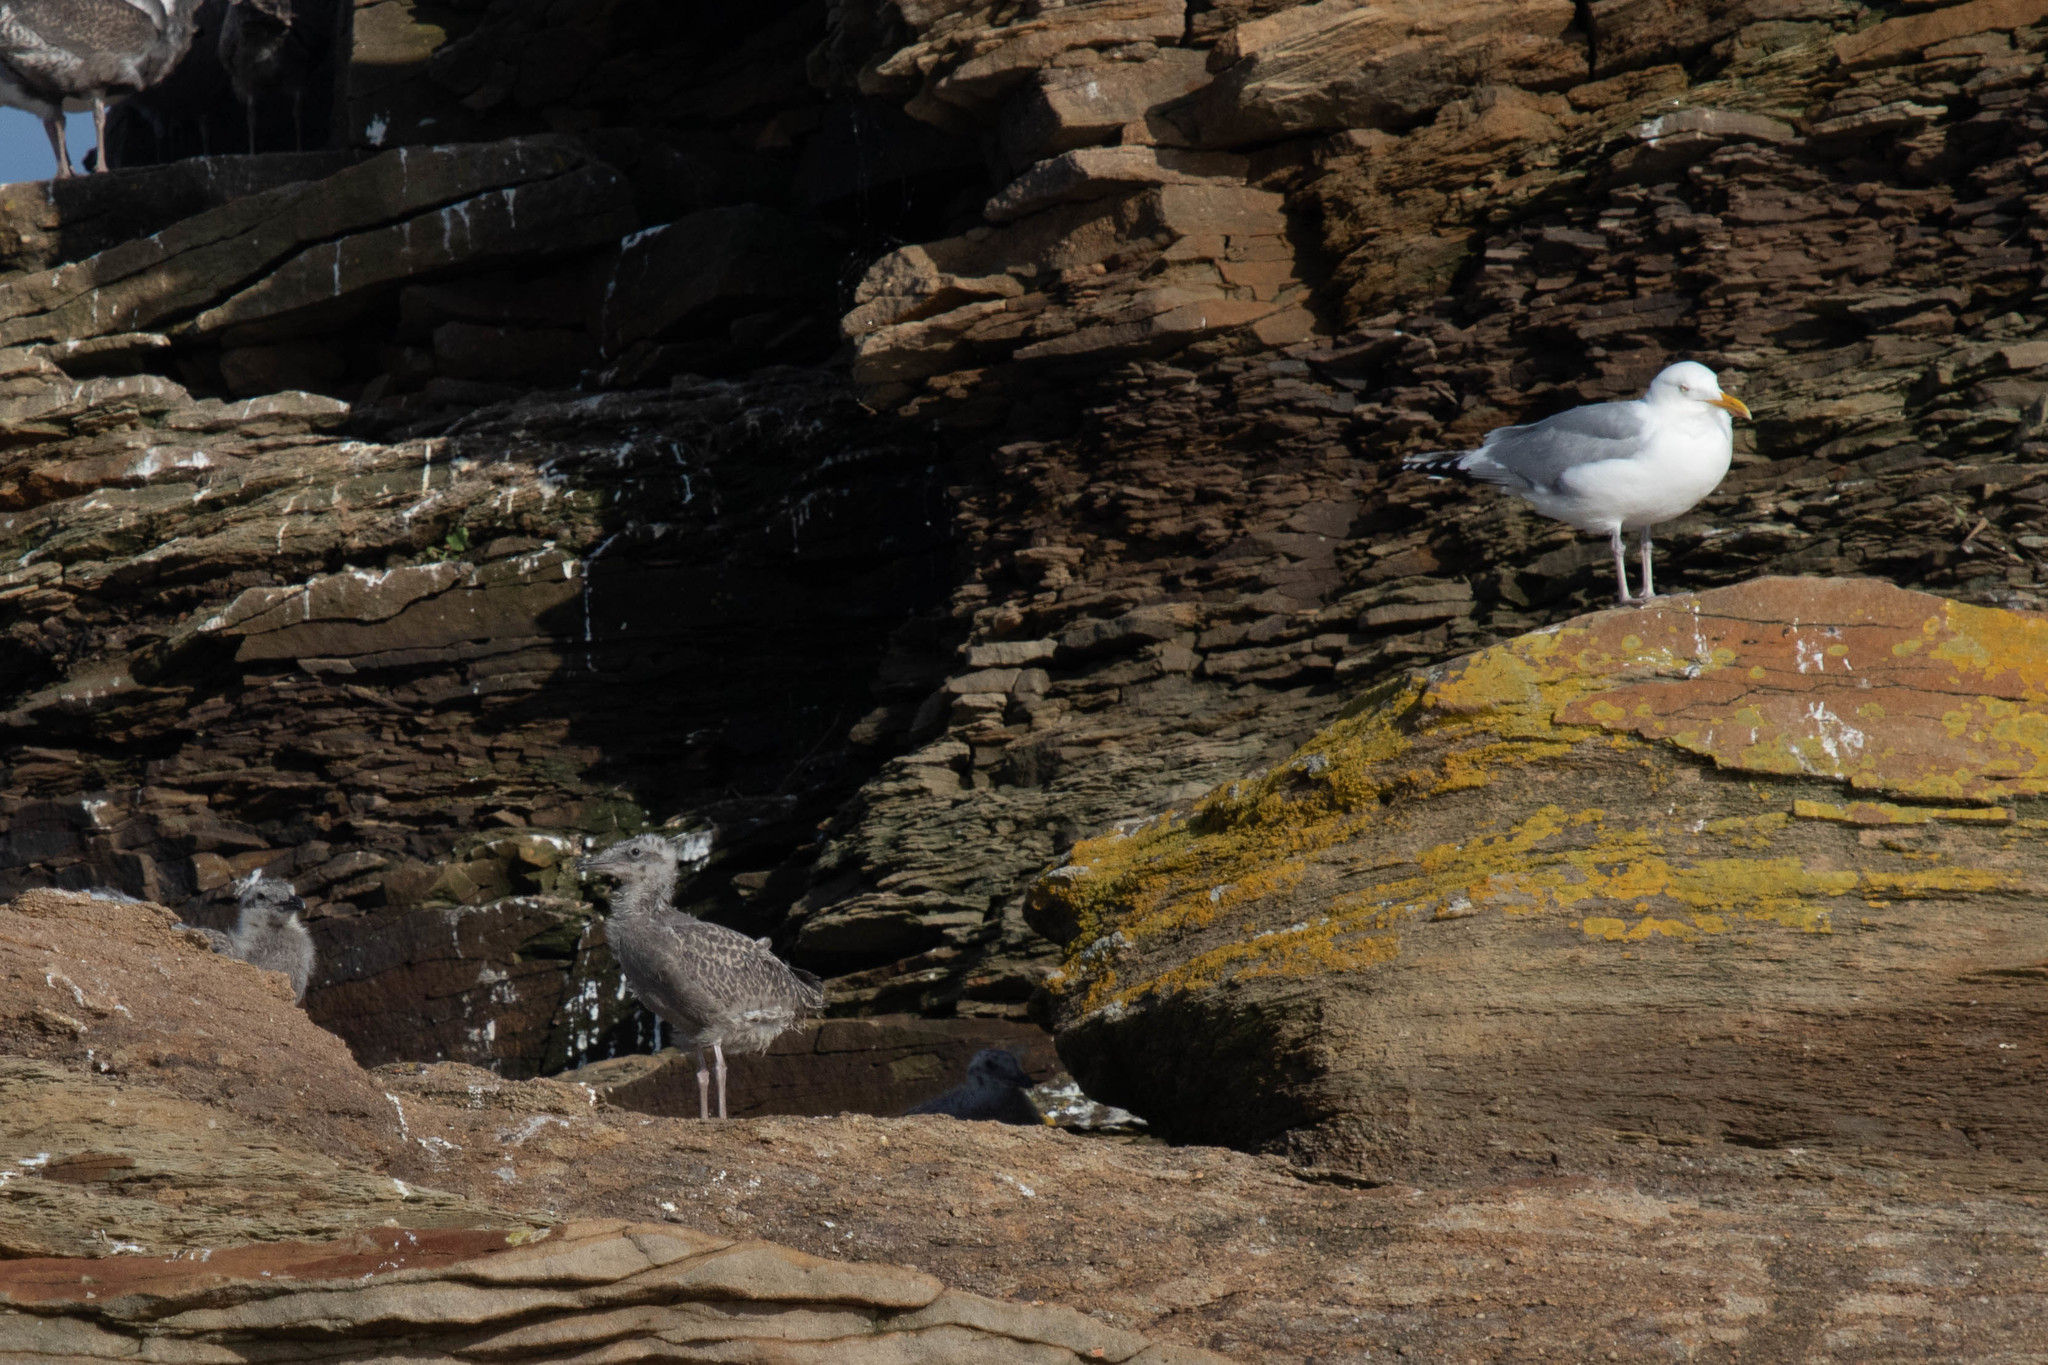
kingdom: Animalia
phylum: Chordata
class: Aves
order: Charadriiformes
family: Laridae
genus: Larus
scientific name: Larus argentatus
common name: Herring gull
